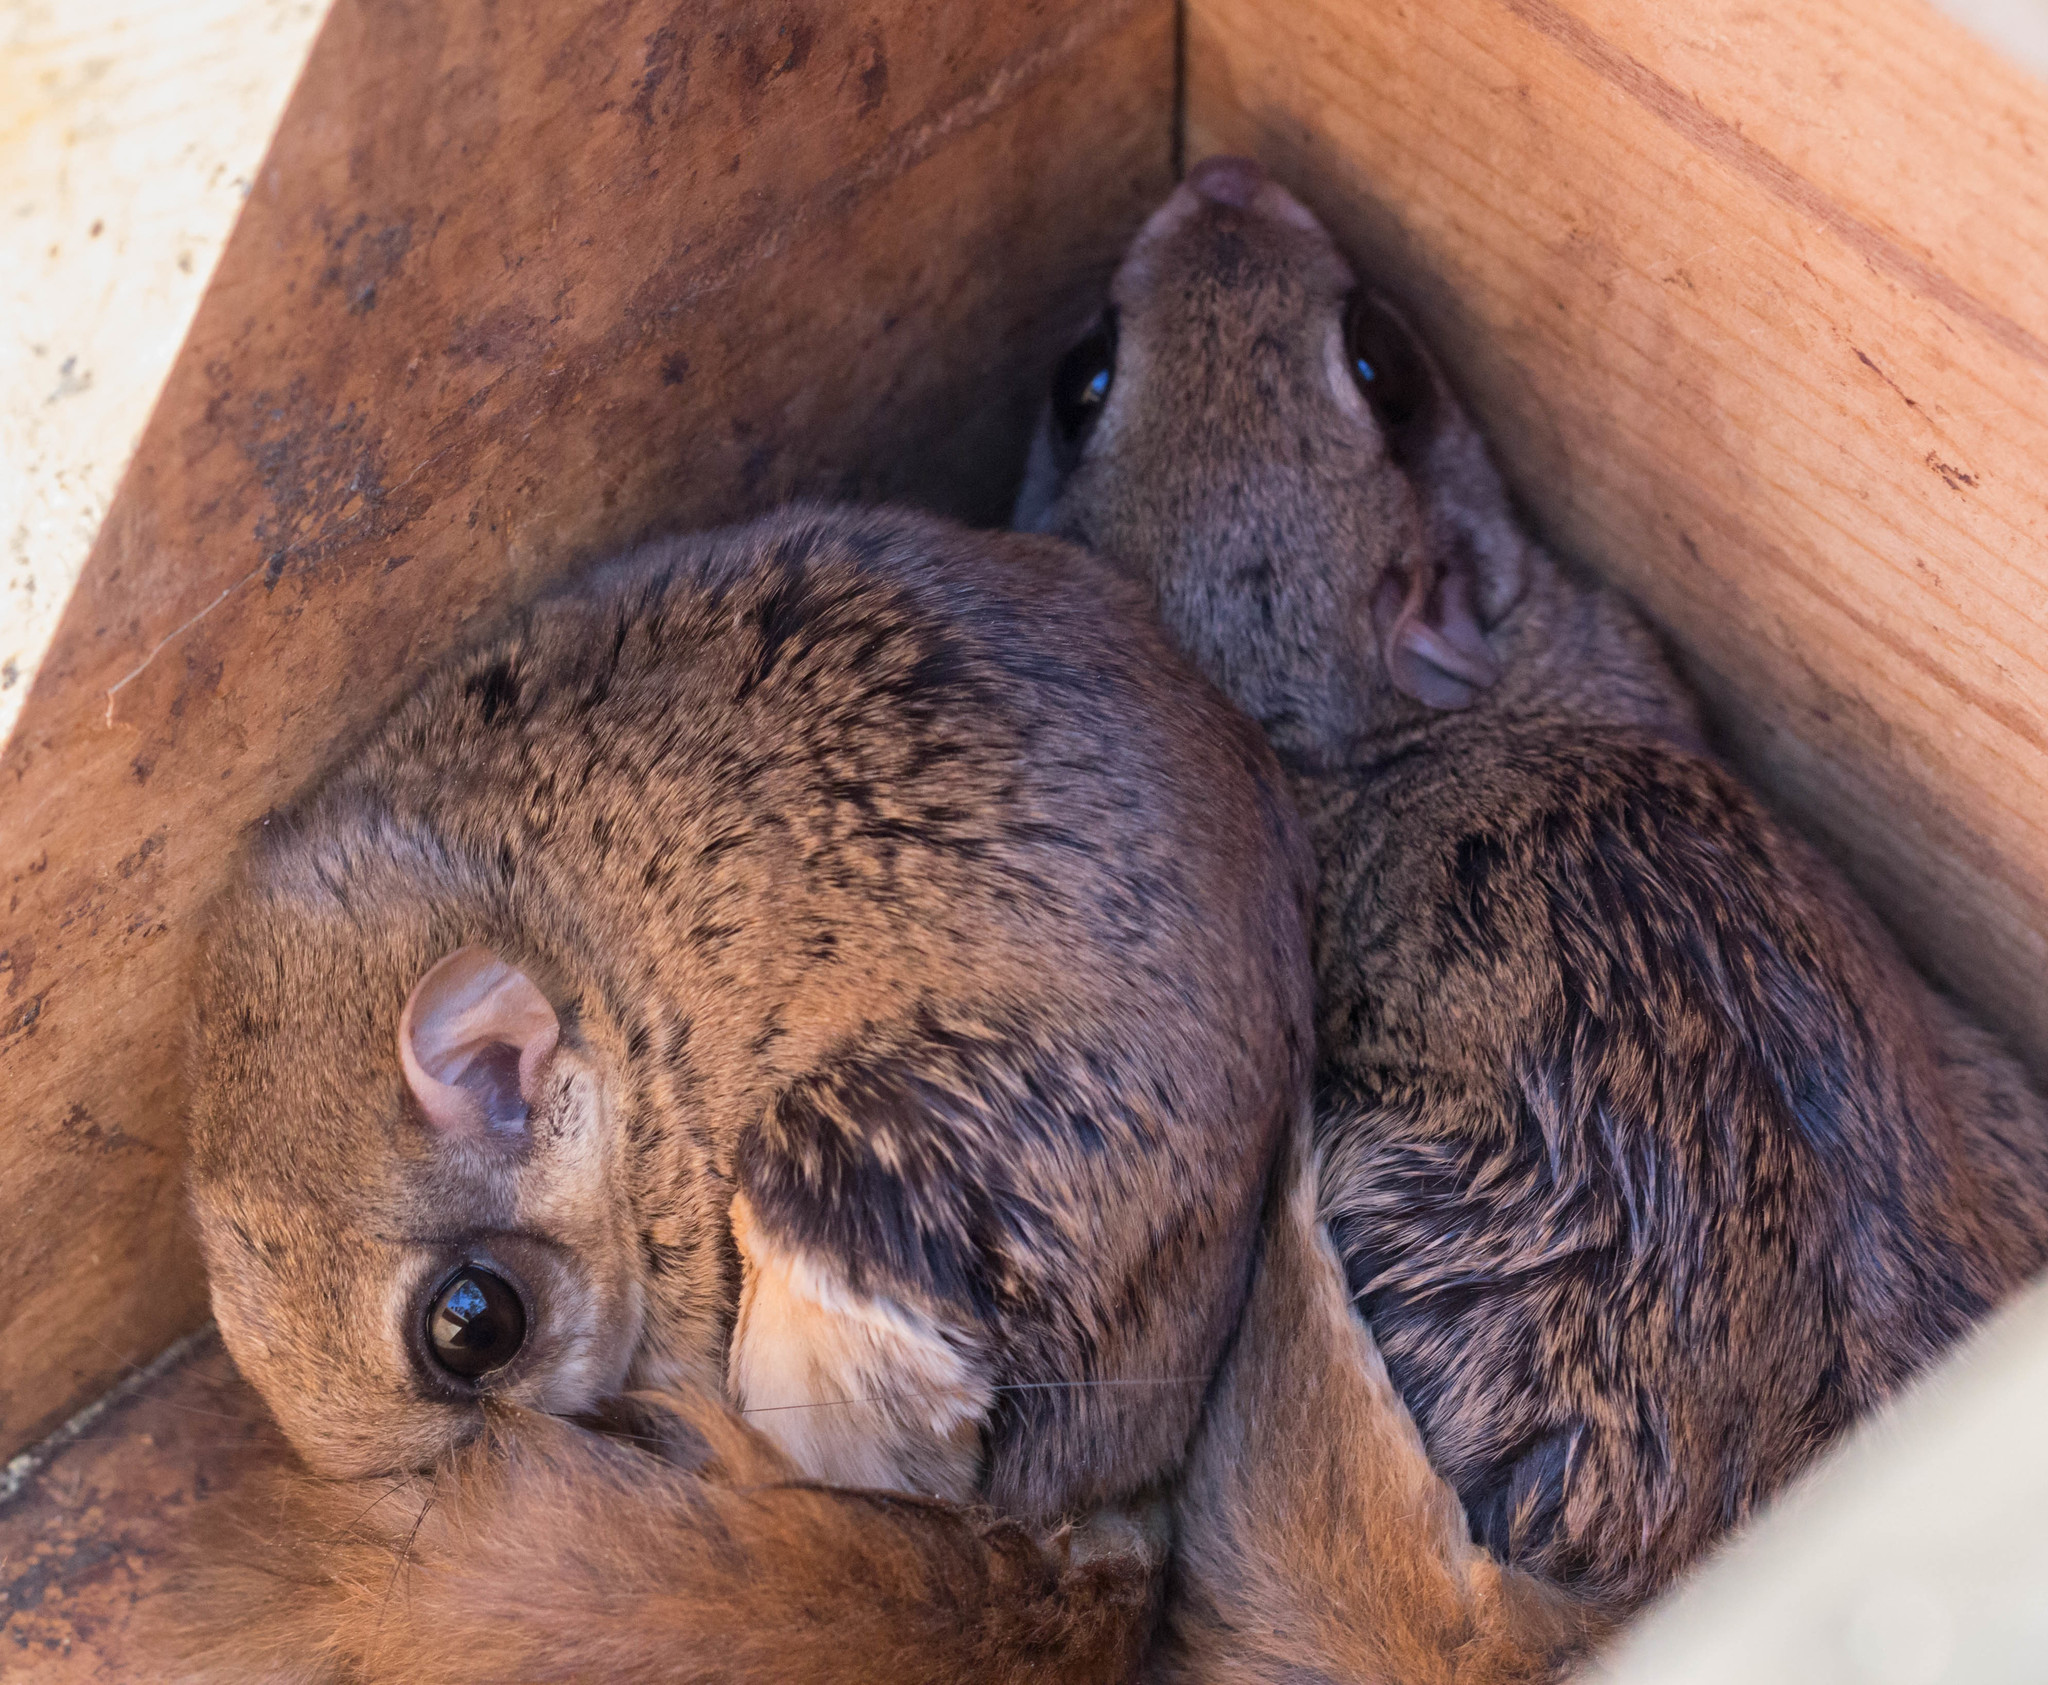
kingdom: Animalia
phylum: Chordata
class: Mammalia
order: Rodentia
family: Sciuridae
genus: Glaucomys
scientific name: Glaucomys volans
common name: Southern flying squirrel
